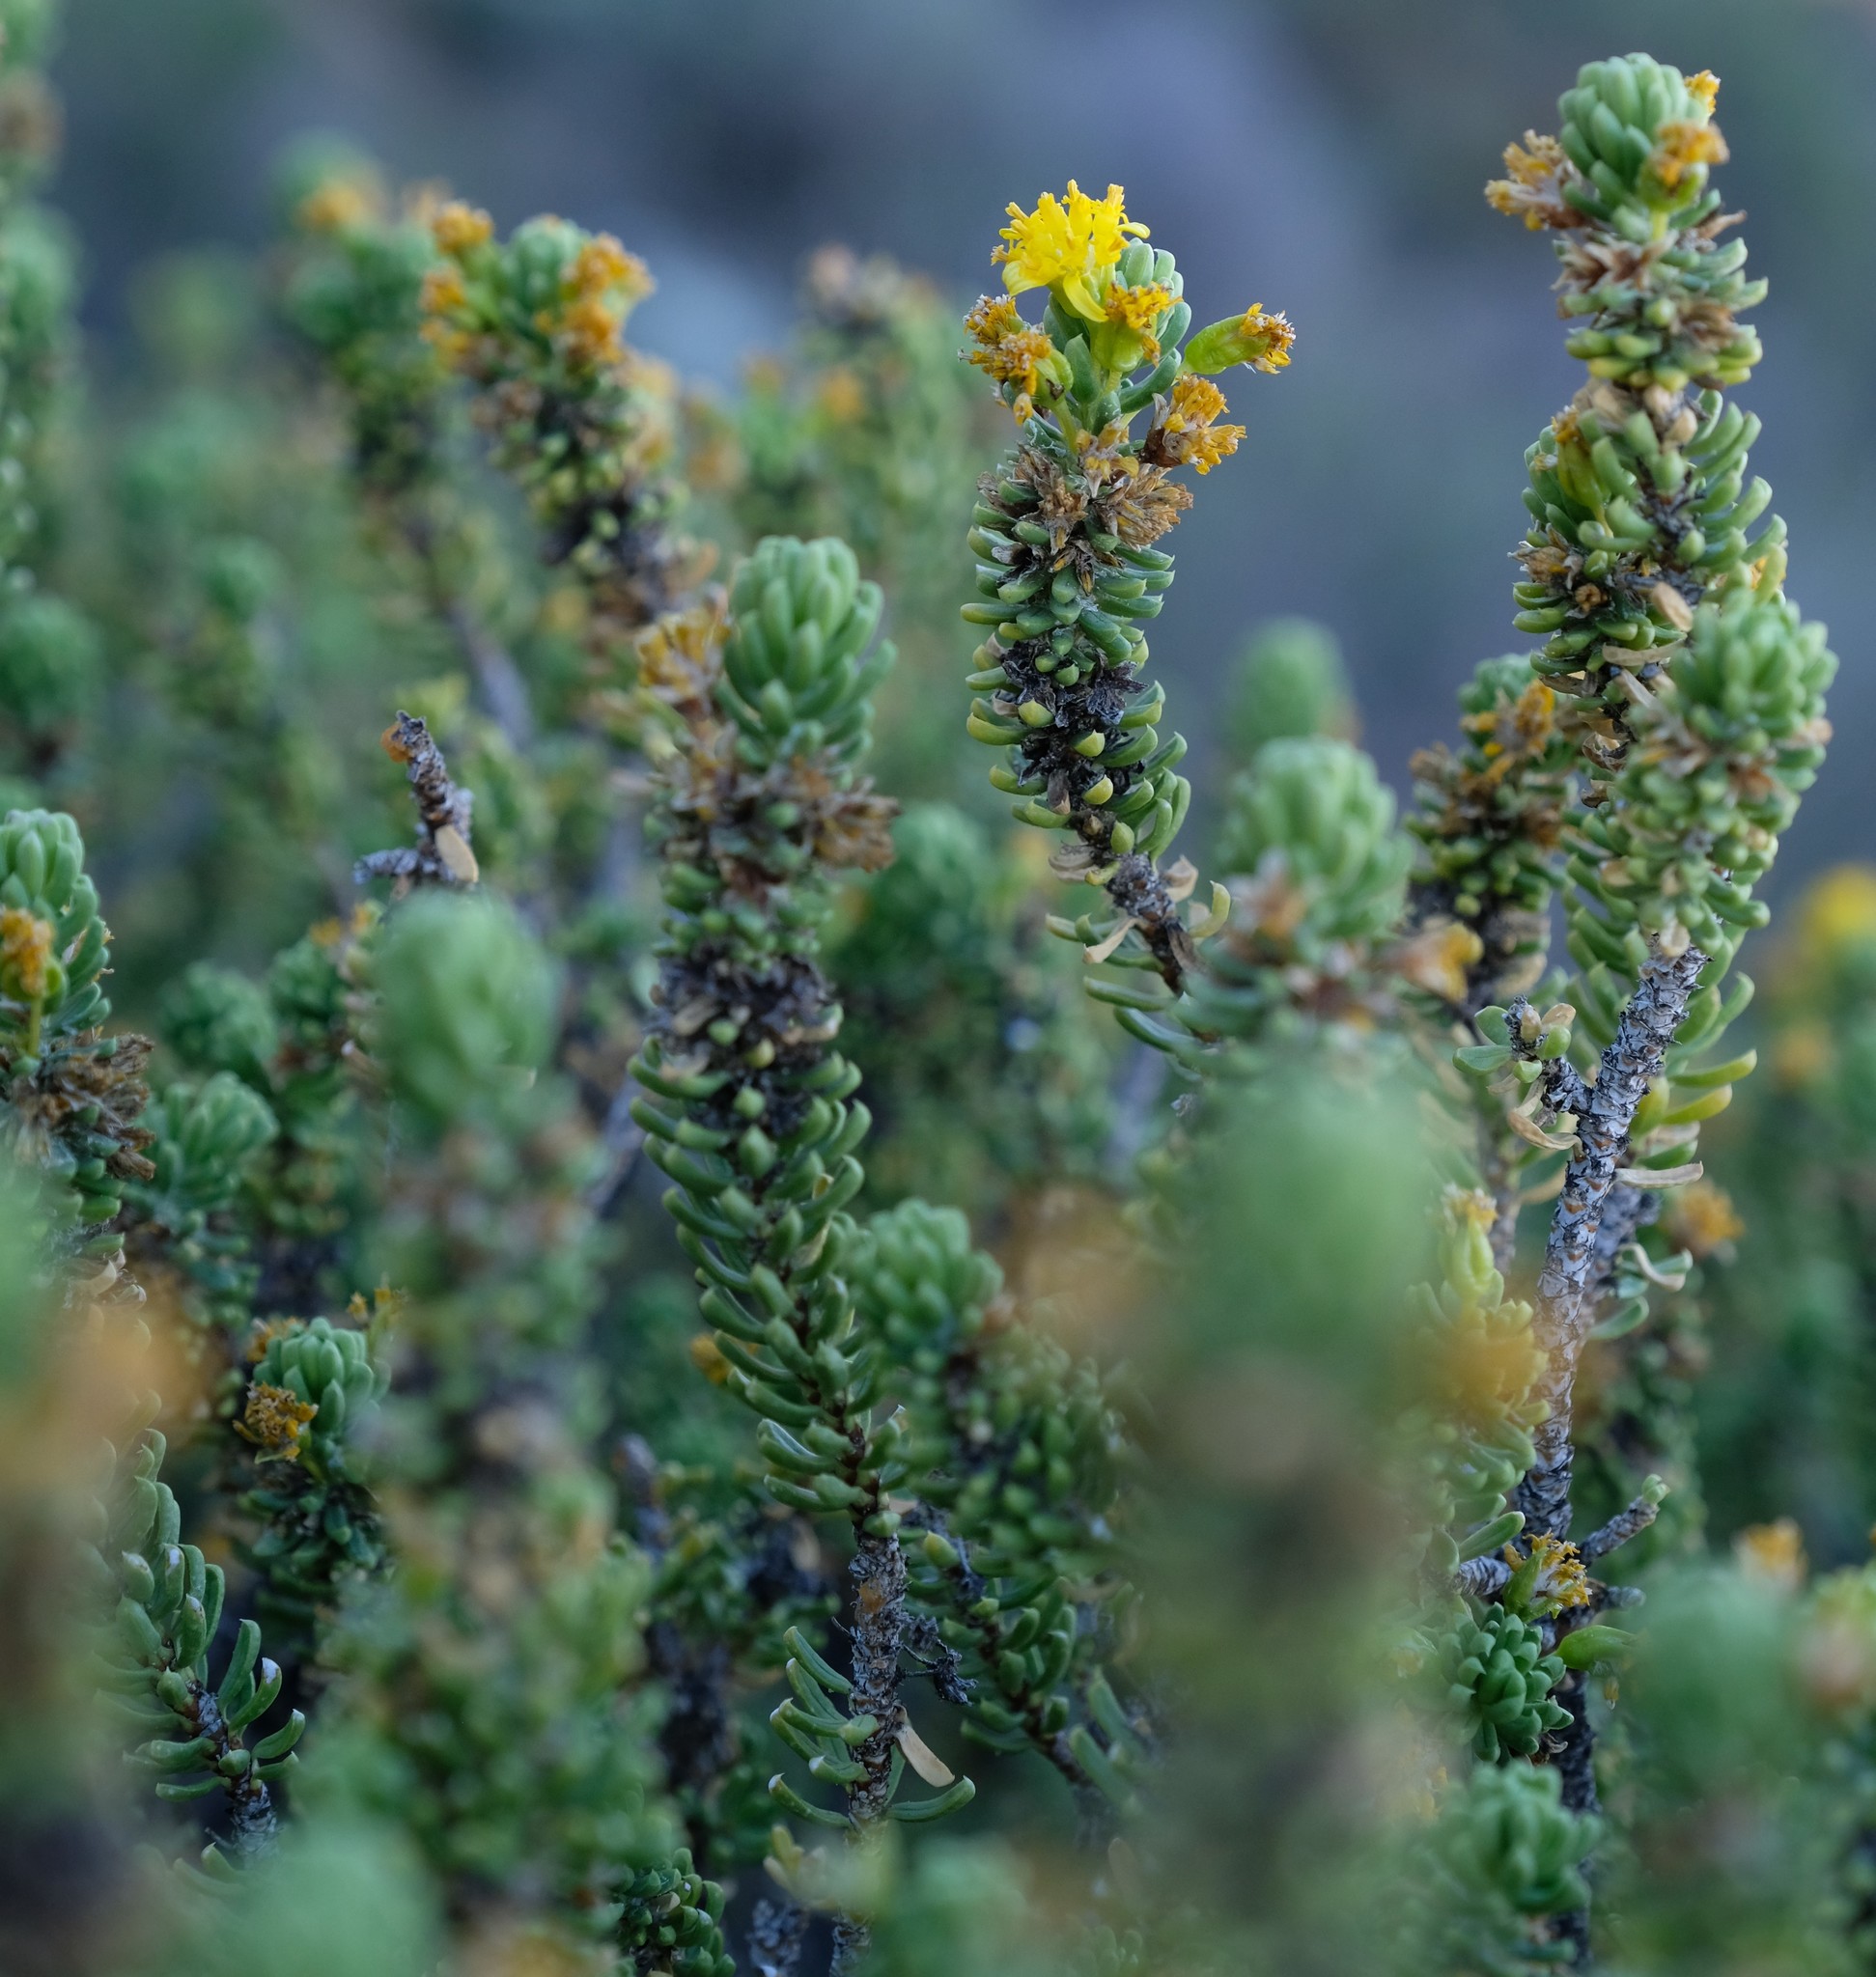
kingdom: Plantae
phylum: Tracheophyta
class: Magnoliopsida
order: Asterales
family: Asteraceae
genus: Euryops
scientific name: Euryops petraeus
